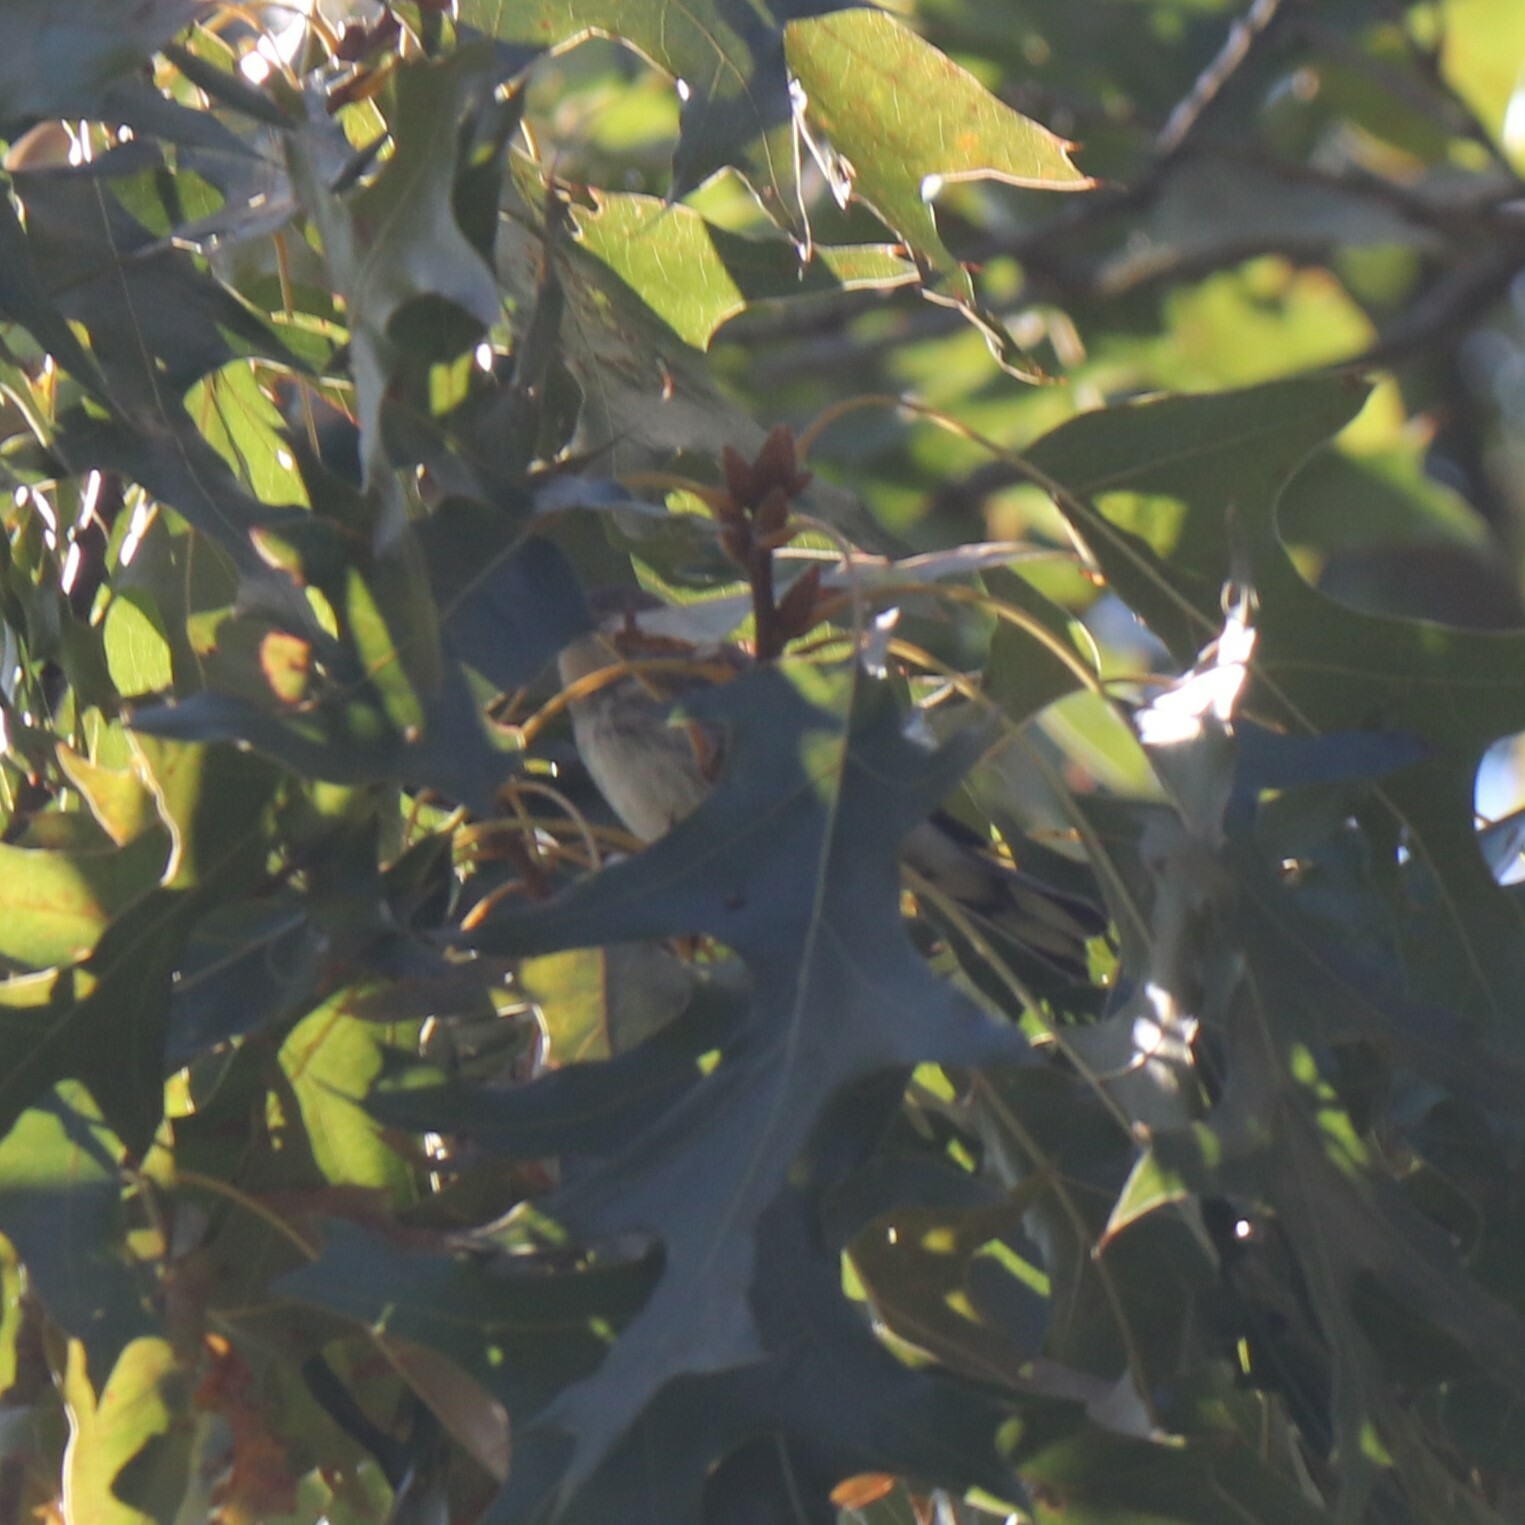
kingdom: Animalia
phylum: Chordata
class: Aves
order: Passeriformes
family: Parulidae
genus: Setophaga
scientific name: Setophaga coronata
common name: Myrtle warbler
